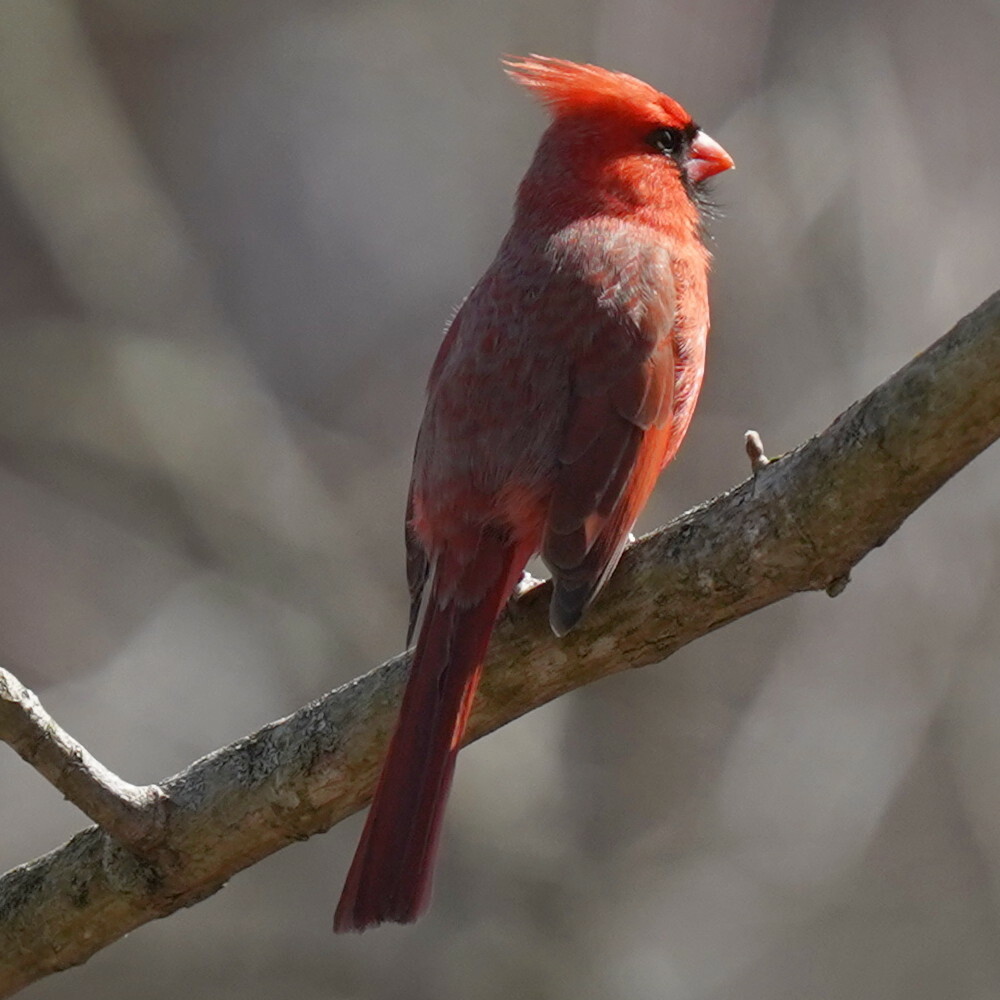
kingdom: Animalia
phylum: Chordata
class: Aves
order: Passeriformes
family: Cardinalidae
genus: Cardinalis
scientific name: Cardinalis cardinalis
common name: Northern cardinal
